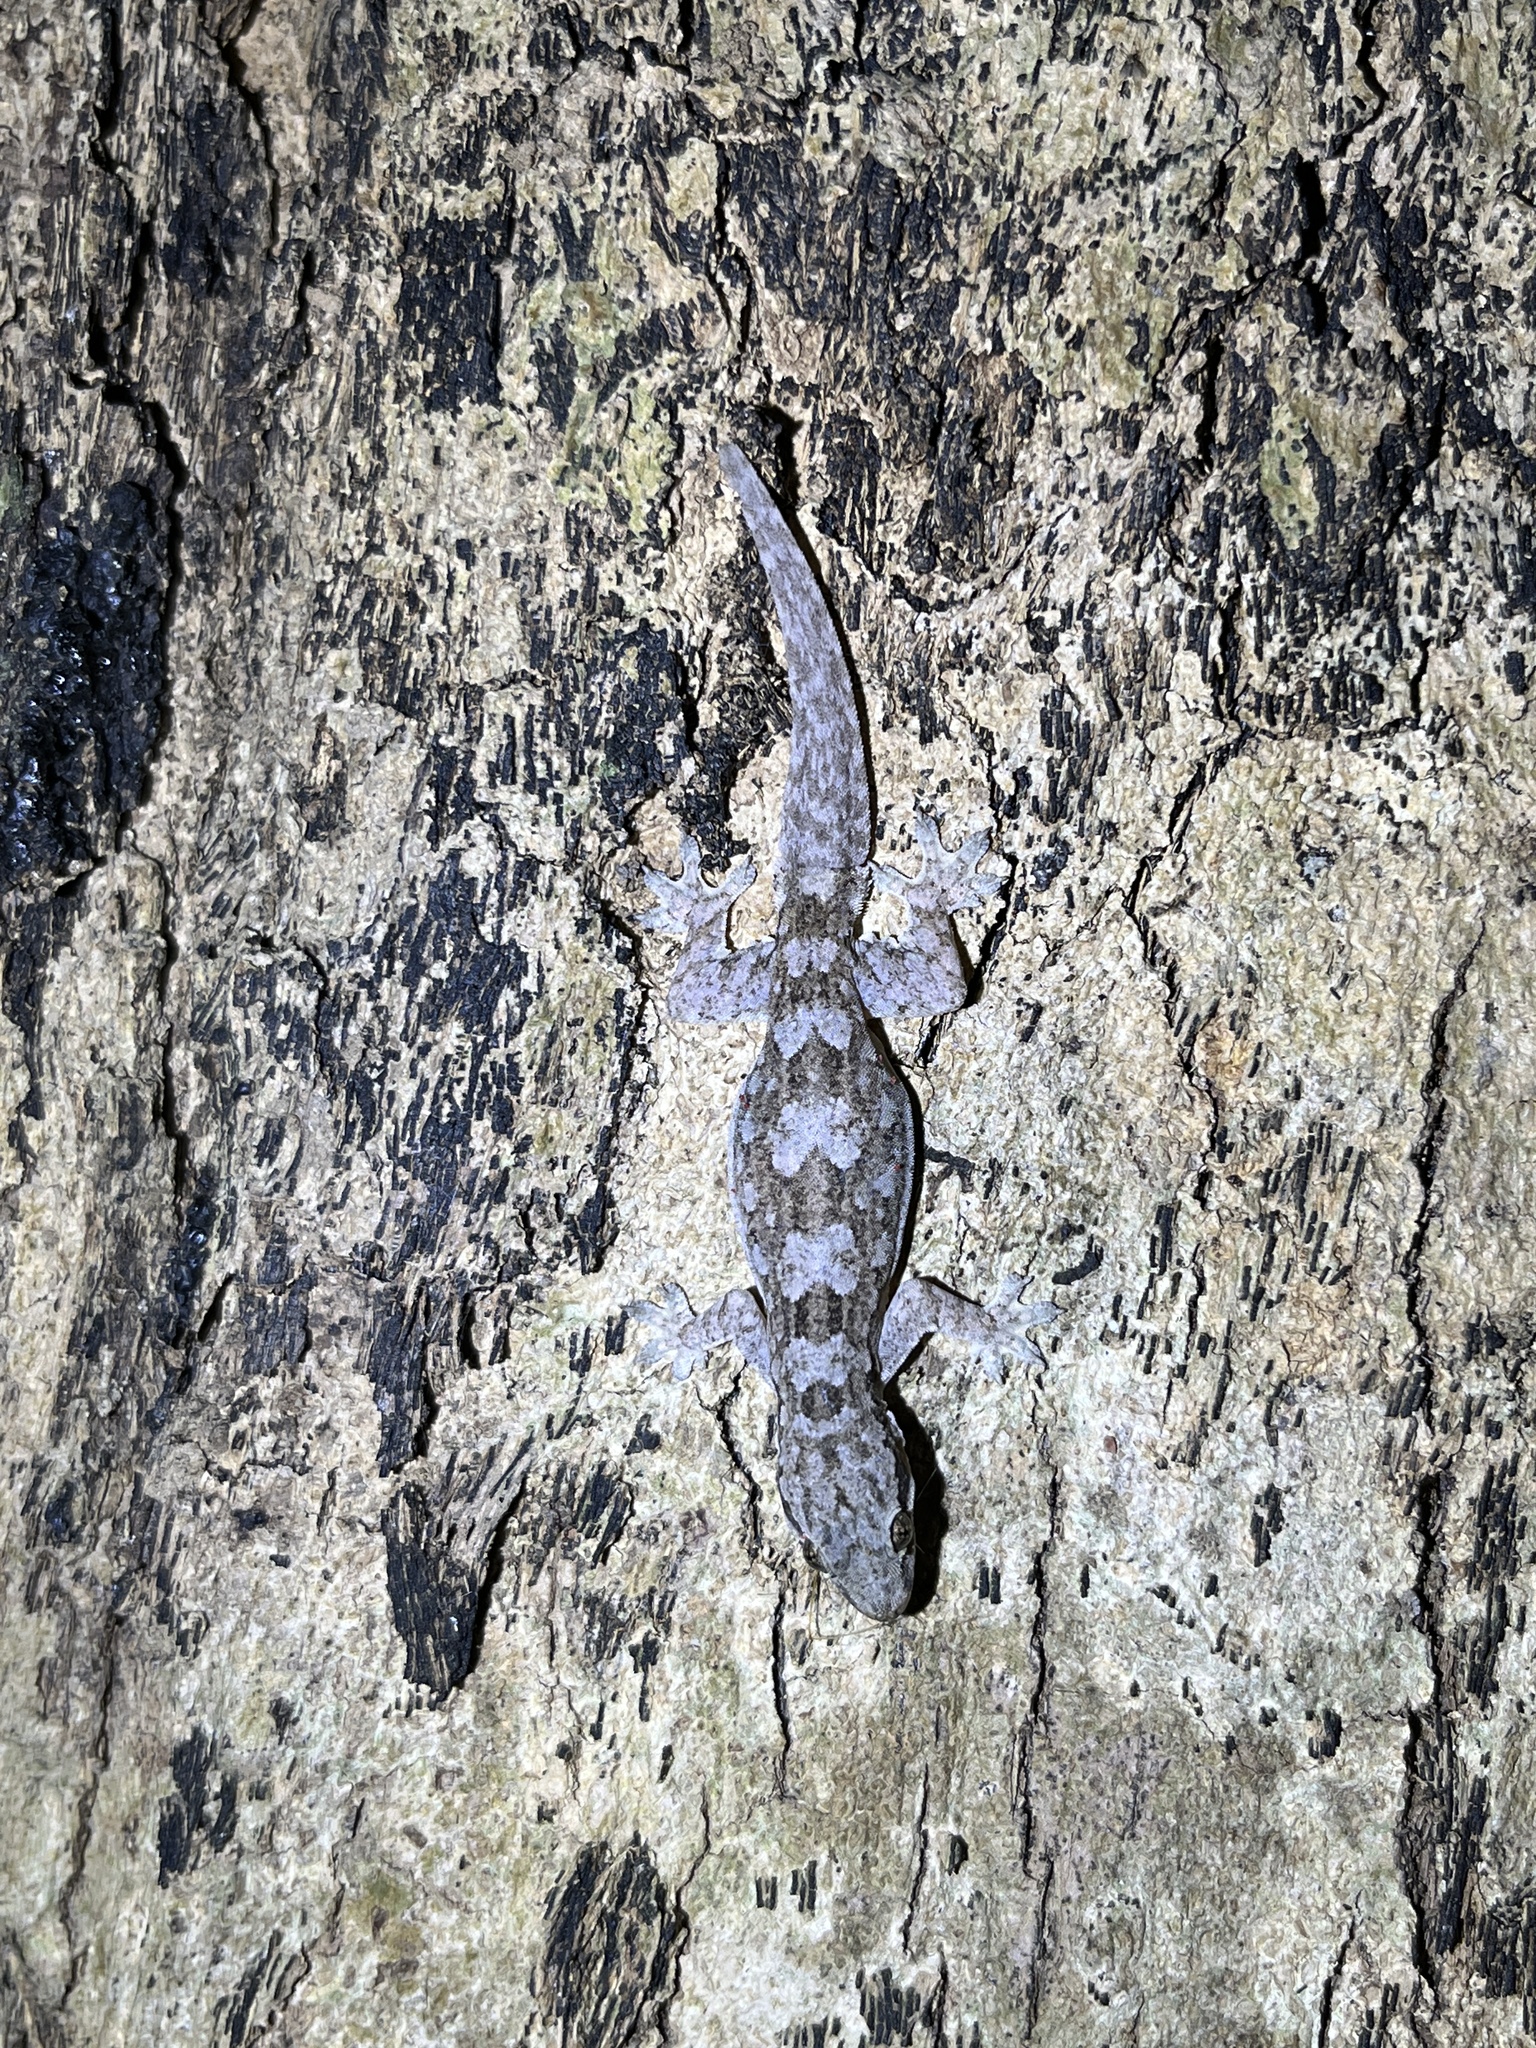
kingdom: Animalia
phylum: Chordata
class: Squamata
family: Gekkonidae
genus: Hemidactylus
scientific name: Hemidactylus platyurus
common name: Flat-tailed house gecko
